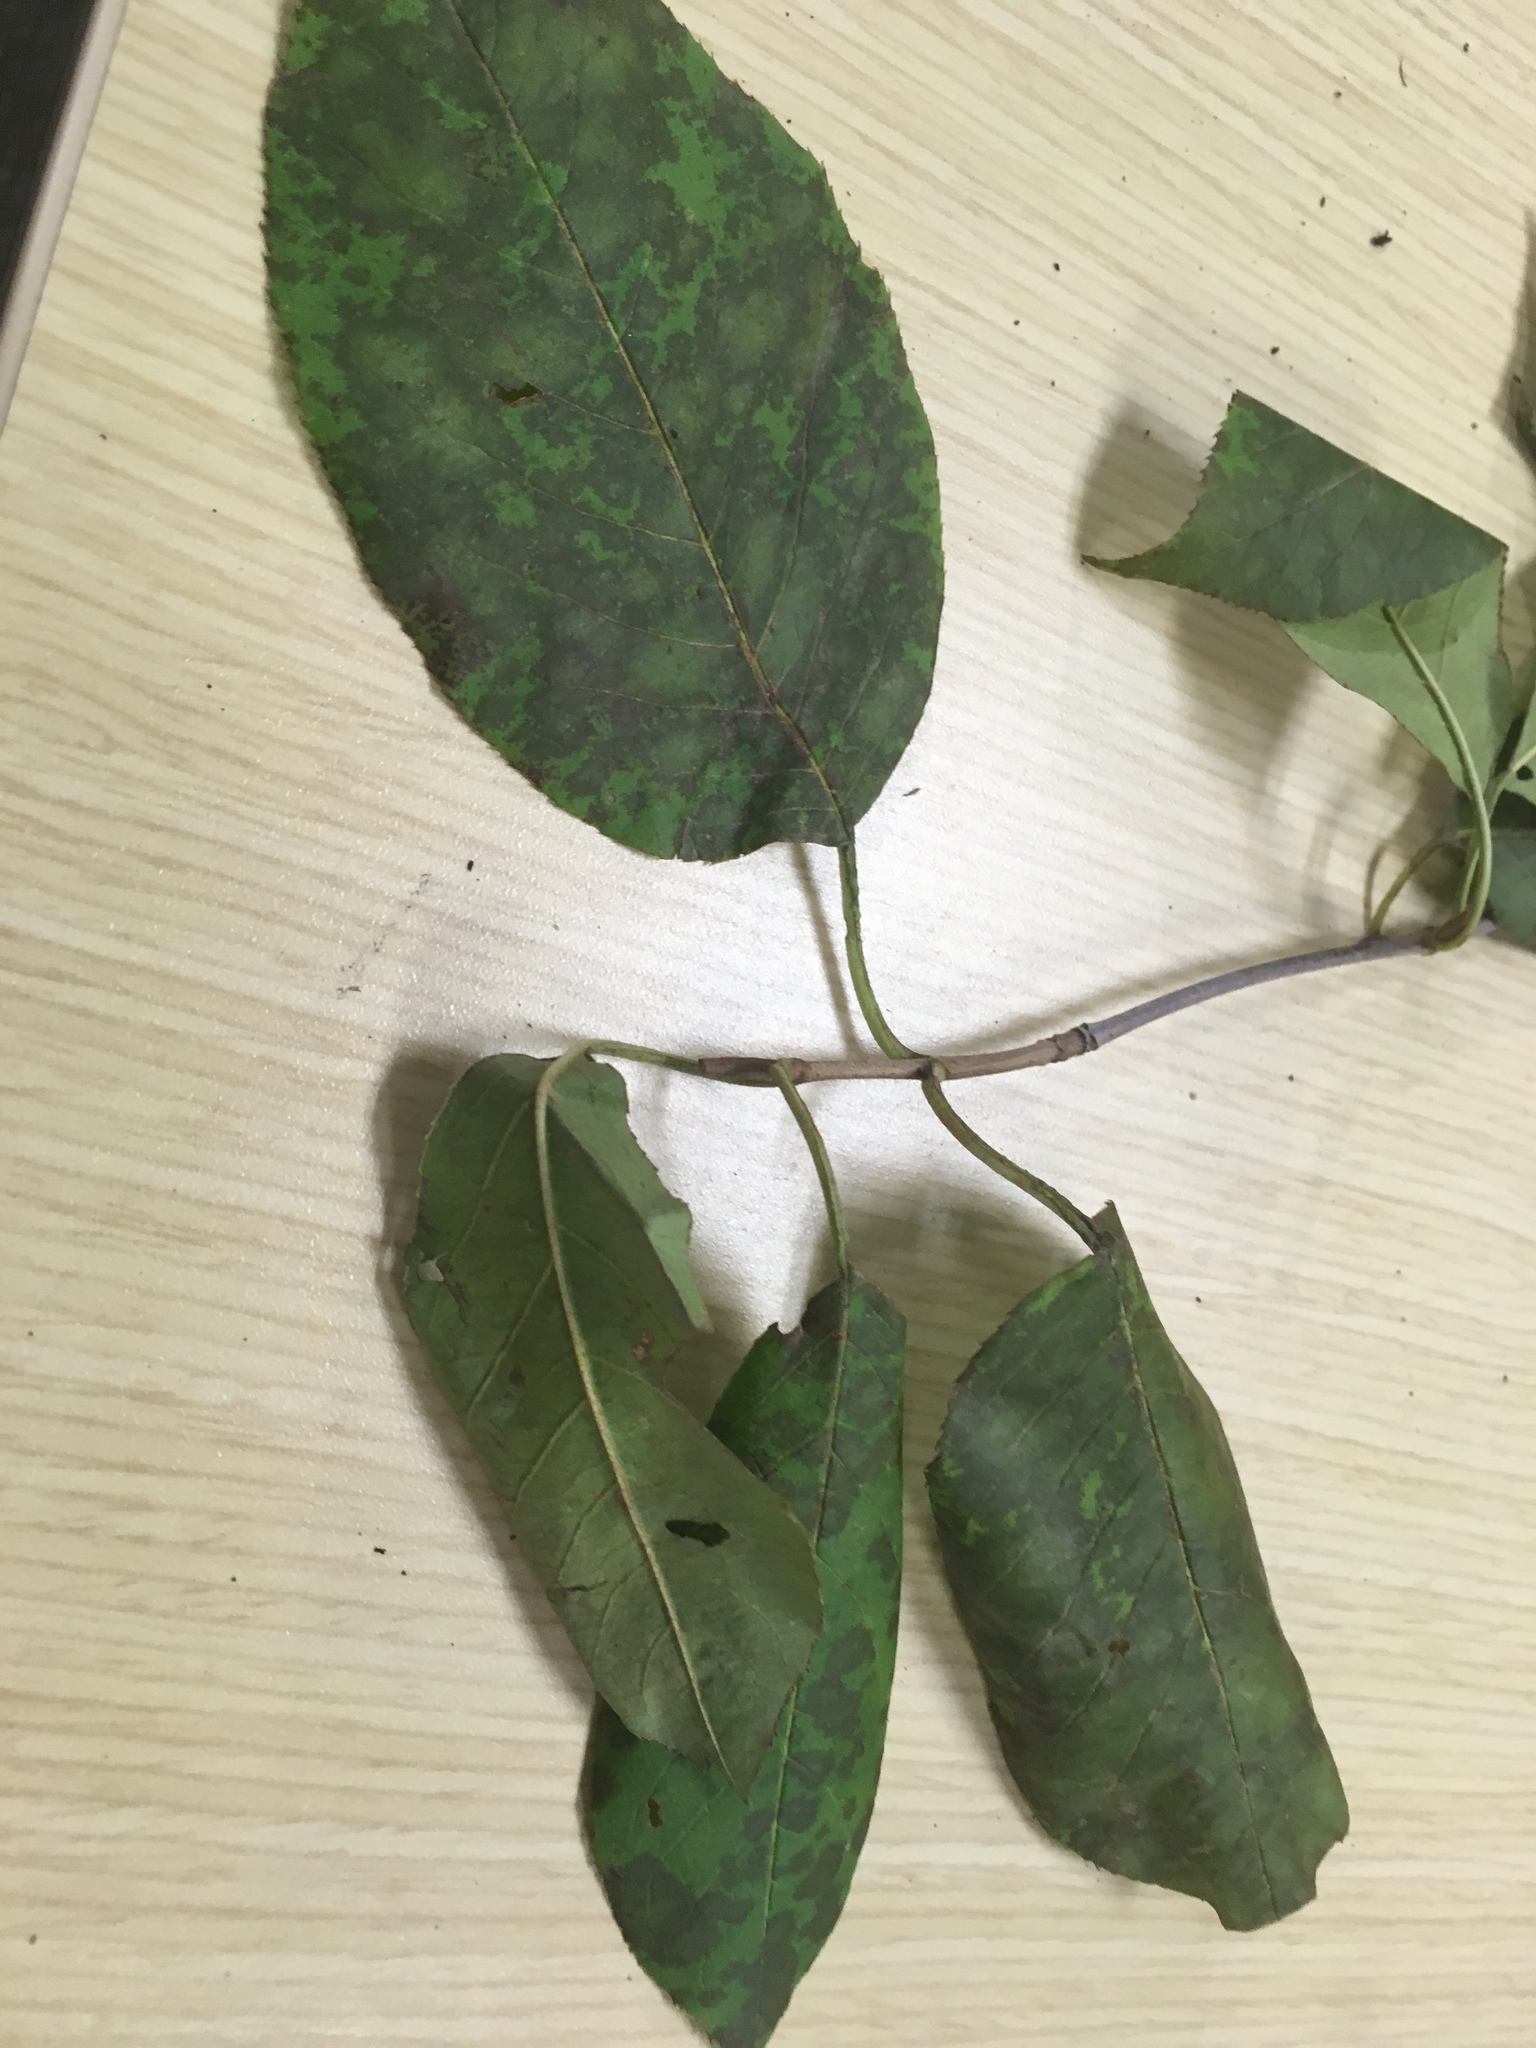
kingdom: Plantae
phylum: Tracheophyta
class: Magnoliopsida
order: Dipsacales
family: Viburnaceae
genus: Viburnum
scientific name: Viburnum lentago
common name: Black haw
